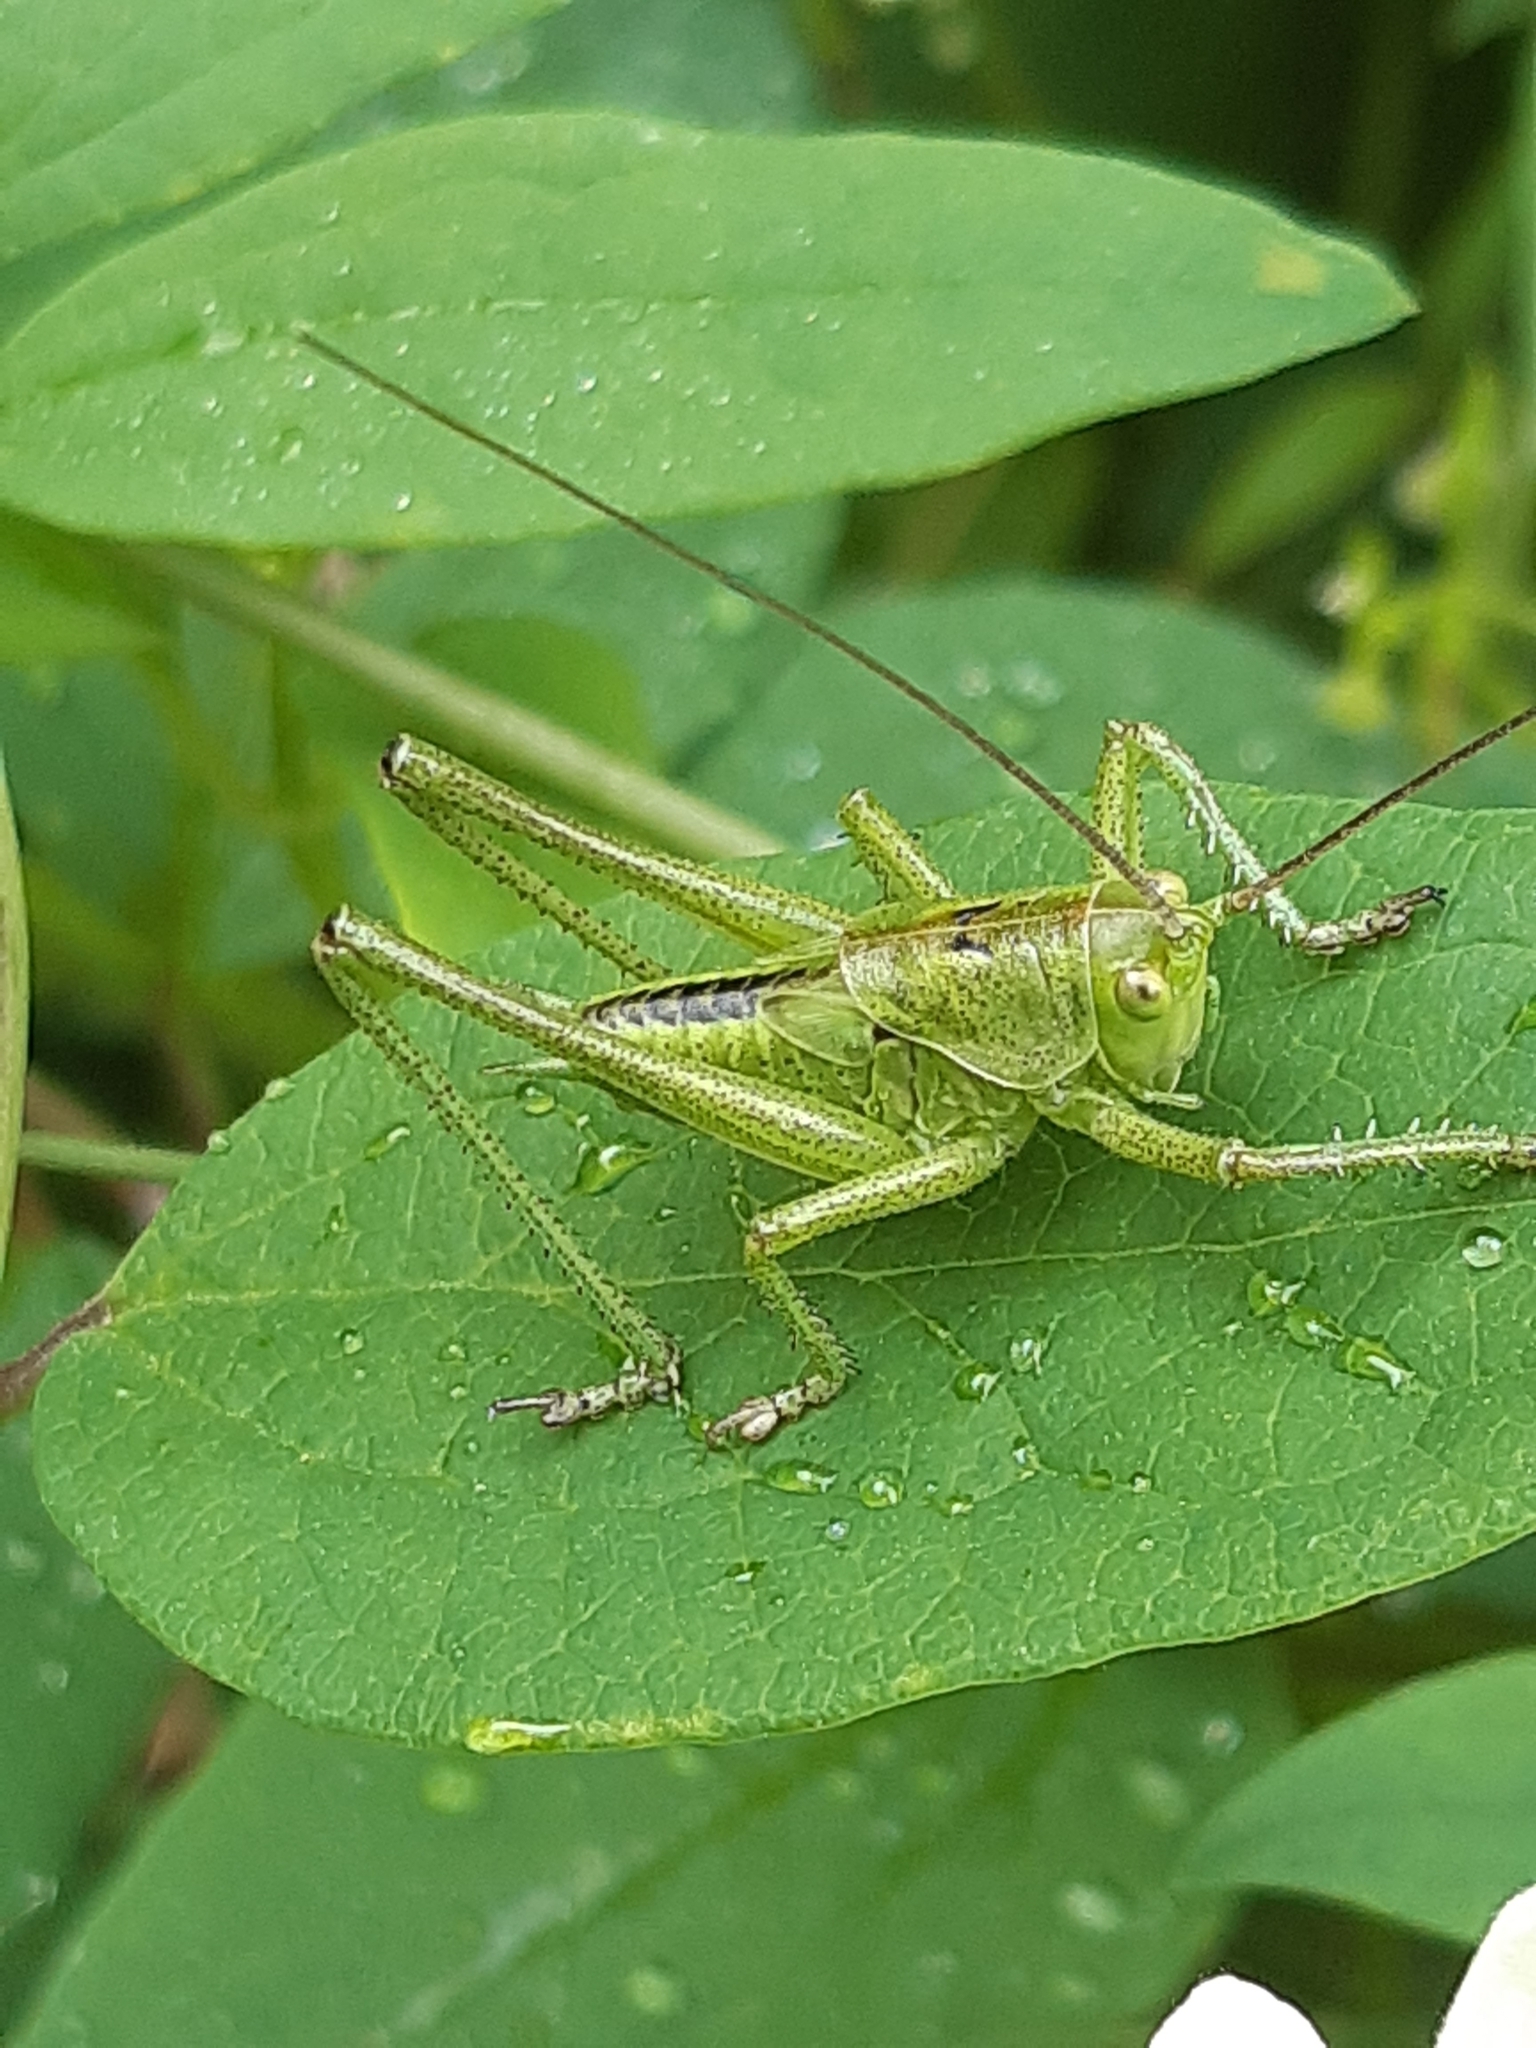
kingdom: Animalia
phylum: Arthropoda
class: Insecta
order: Orthoptera
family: Tettigoniidae
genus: Tettigonia
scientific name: Tettigonia viridissima
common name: Great green bush-cricket
